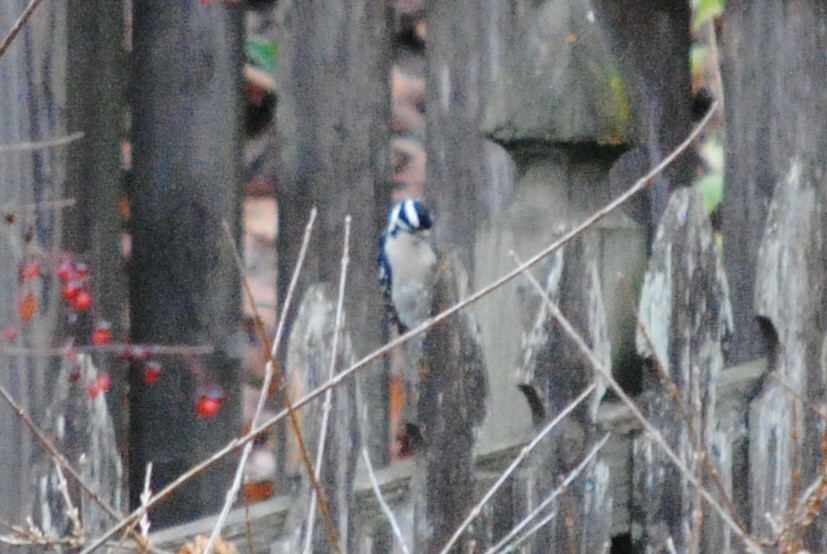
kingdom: Animalia
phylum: Chordata
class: Aves
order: Piciformes
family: Picidae
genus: Dryobates
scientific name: Dryobates pubescens
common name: Downy woodpecker
